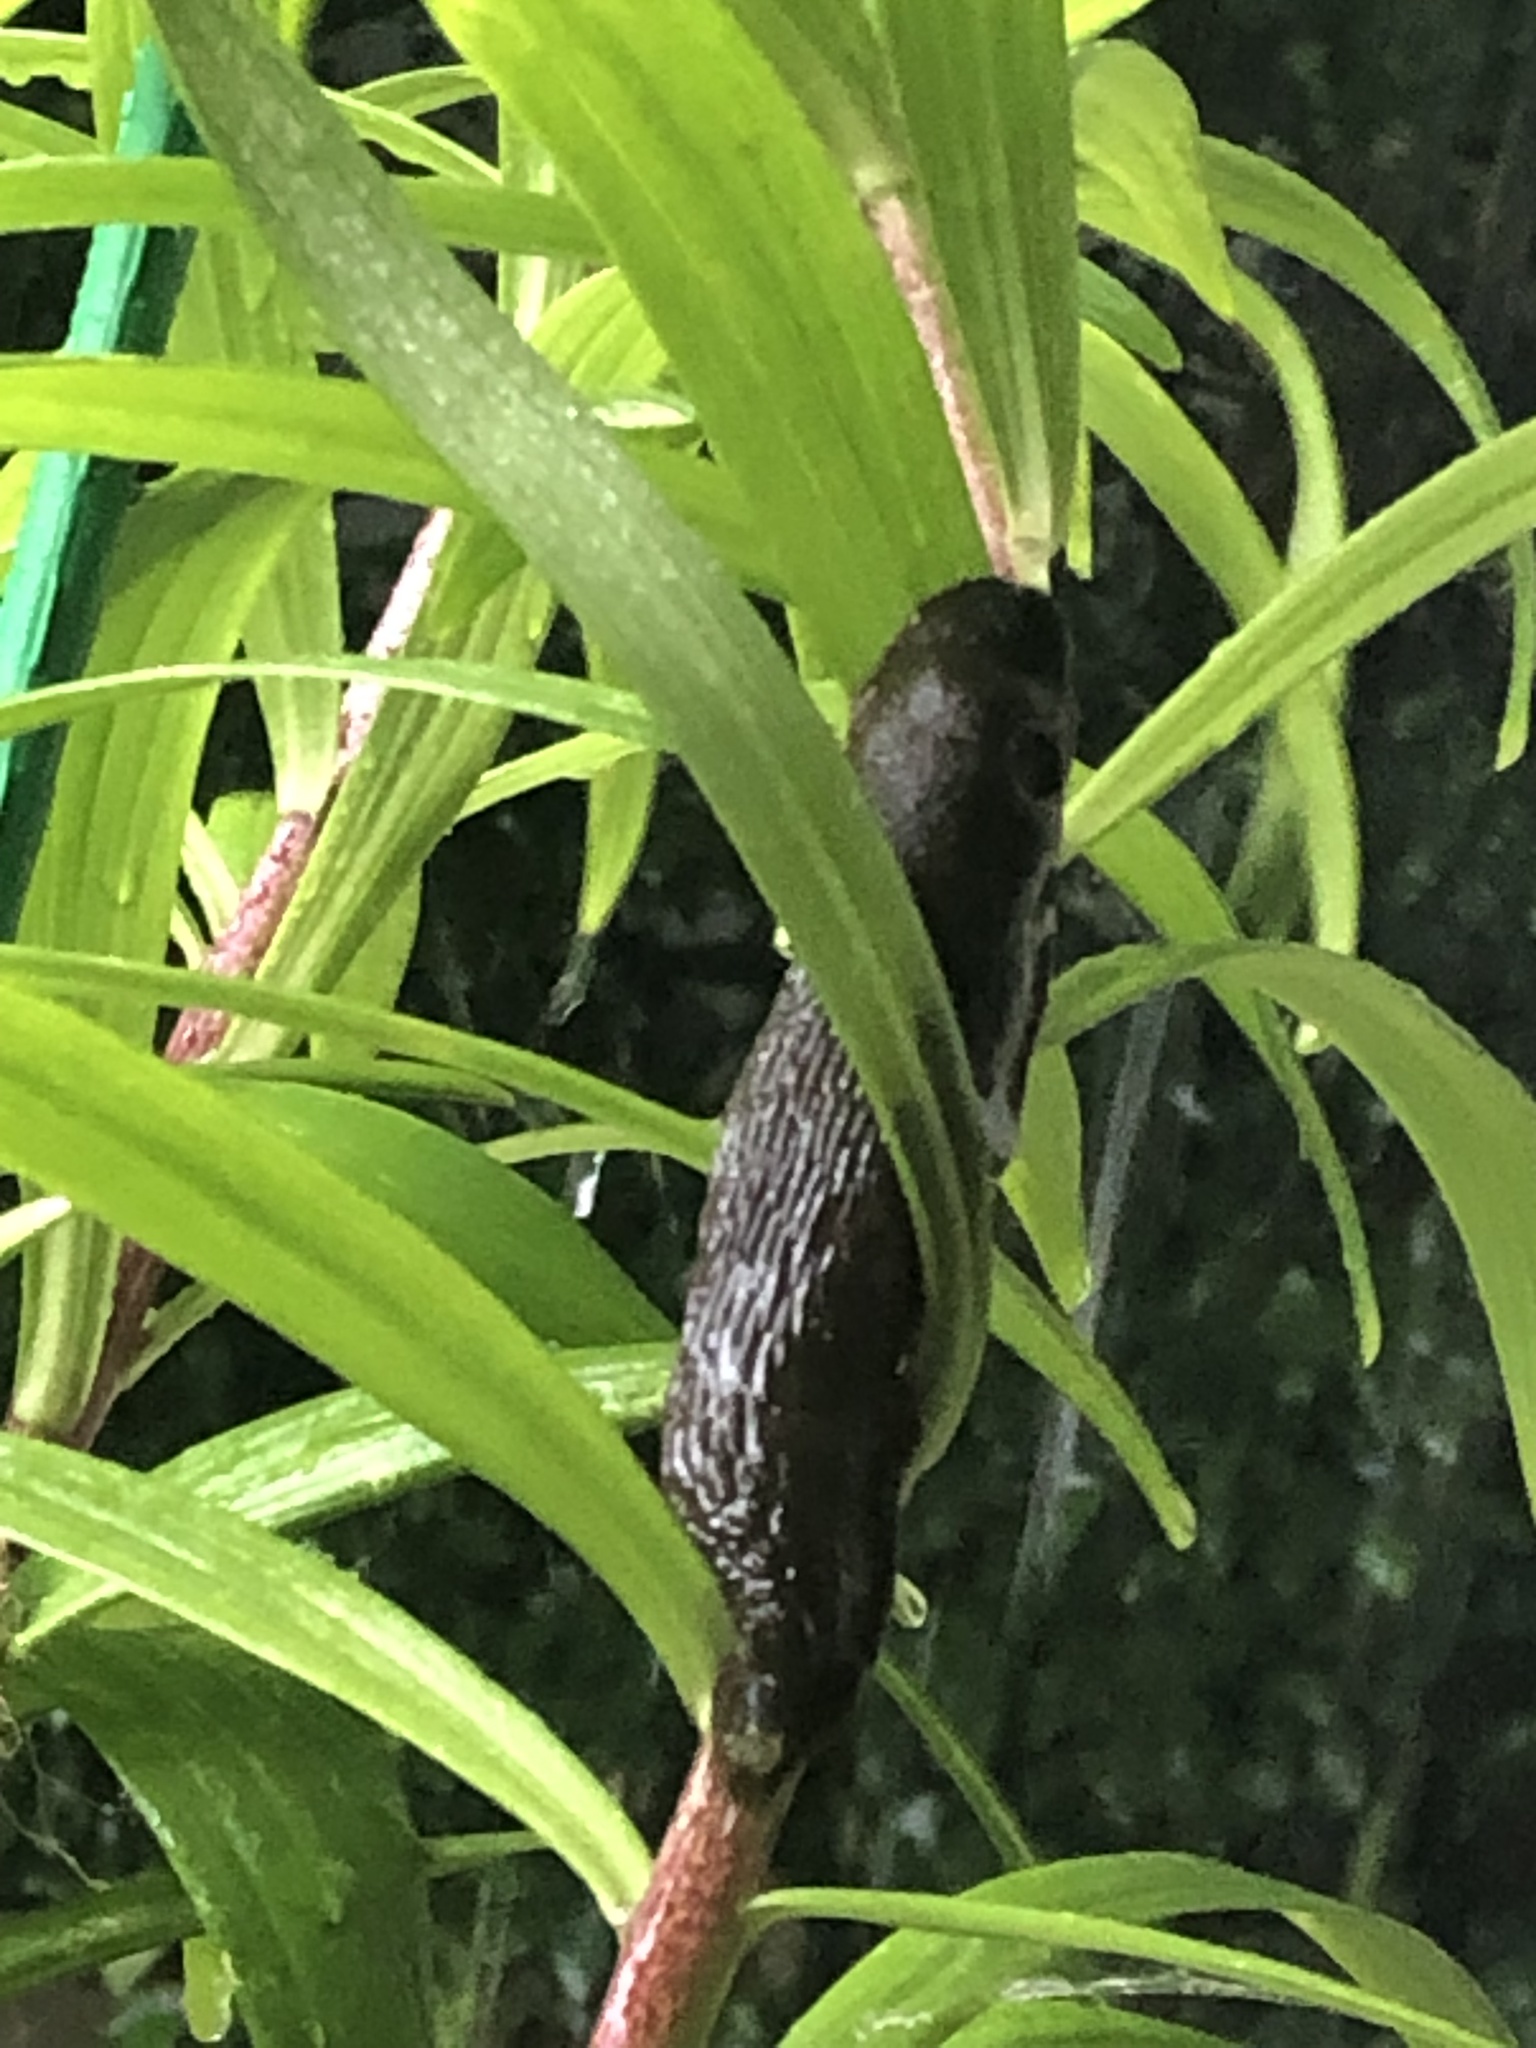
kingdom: Animalia
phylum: Mollusca
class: Gastropoda
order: Stylommatophora
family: Arionidae
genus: Arion
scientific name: Arion
